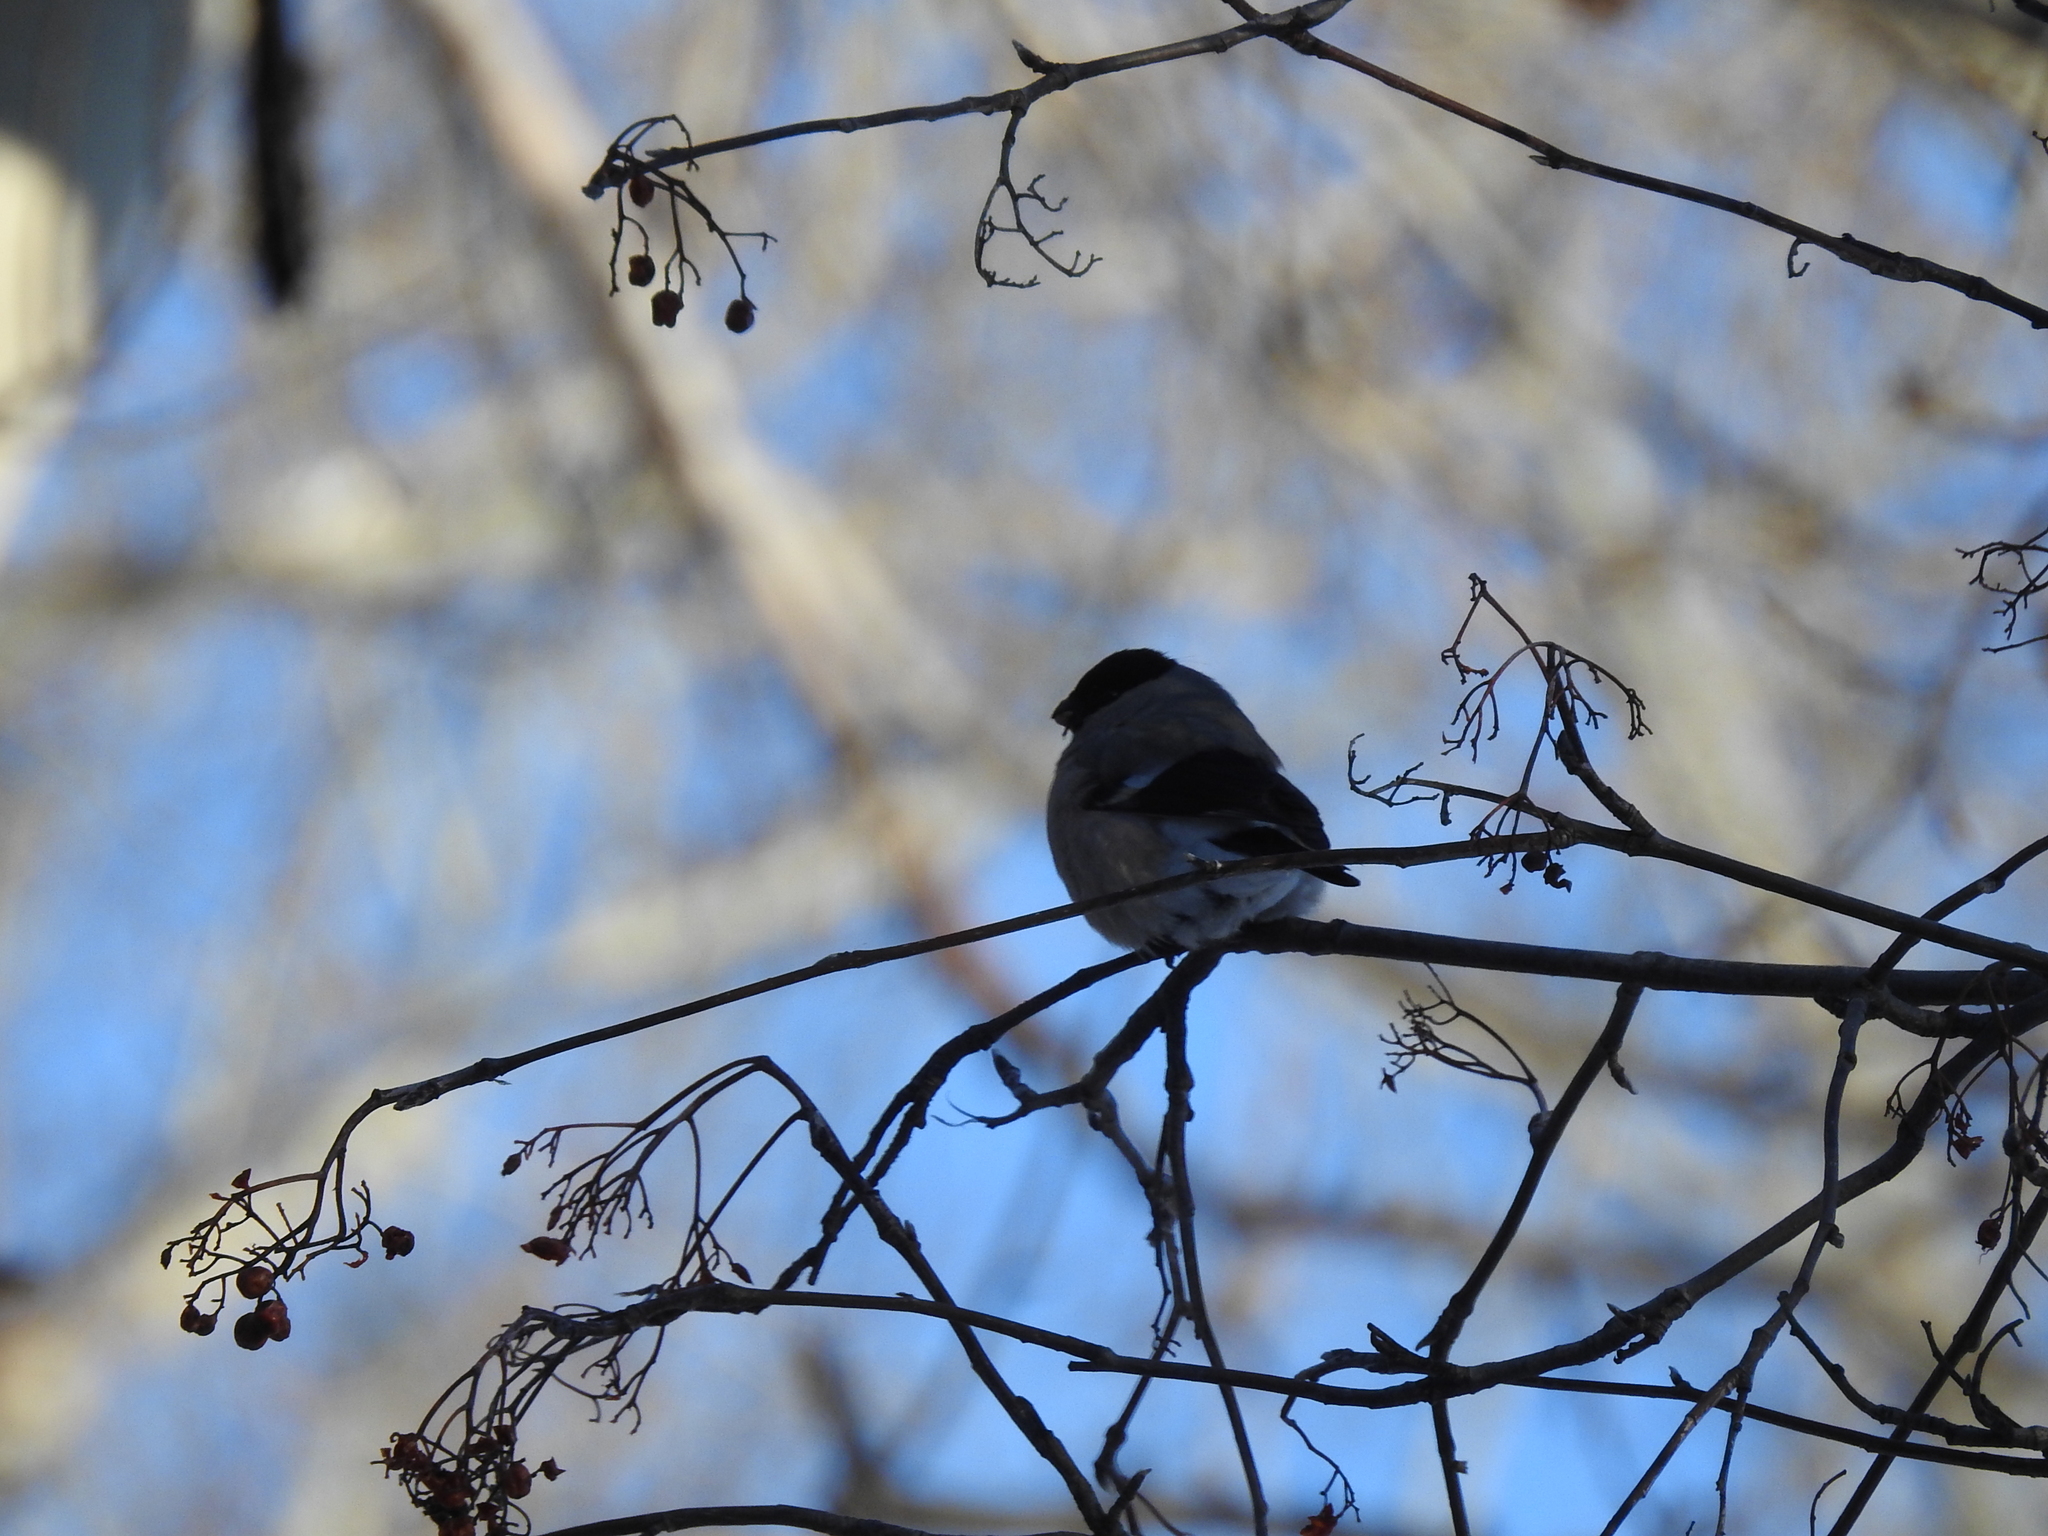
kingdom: Animalia
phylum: Chordata
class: Aves
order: Passeriformes
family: Fringillidae
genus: Pyrrhula
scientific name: Pyrrhula pyrrhula
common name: Eurasian bullfinch
